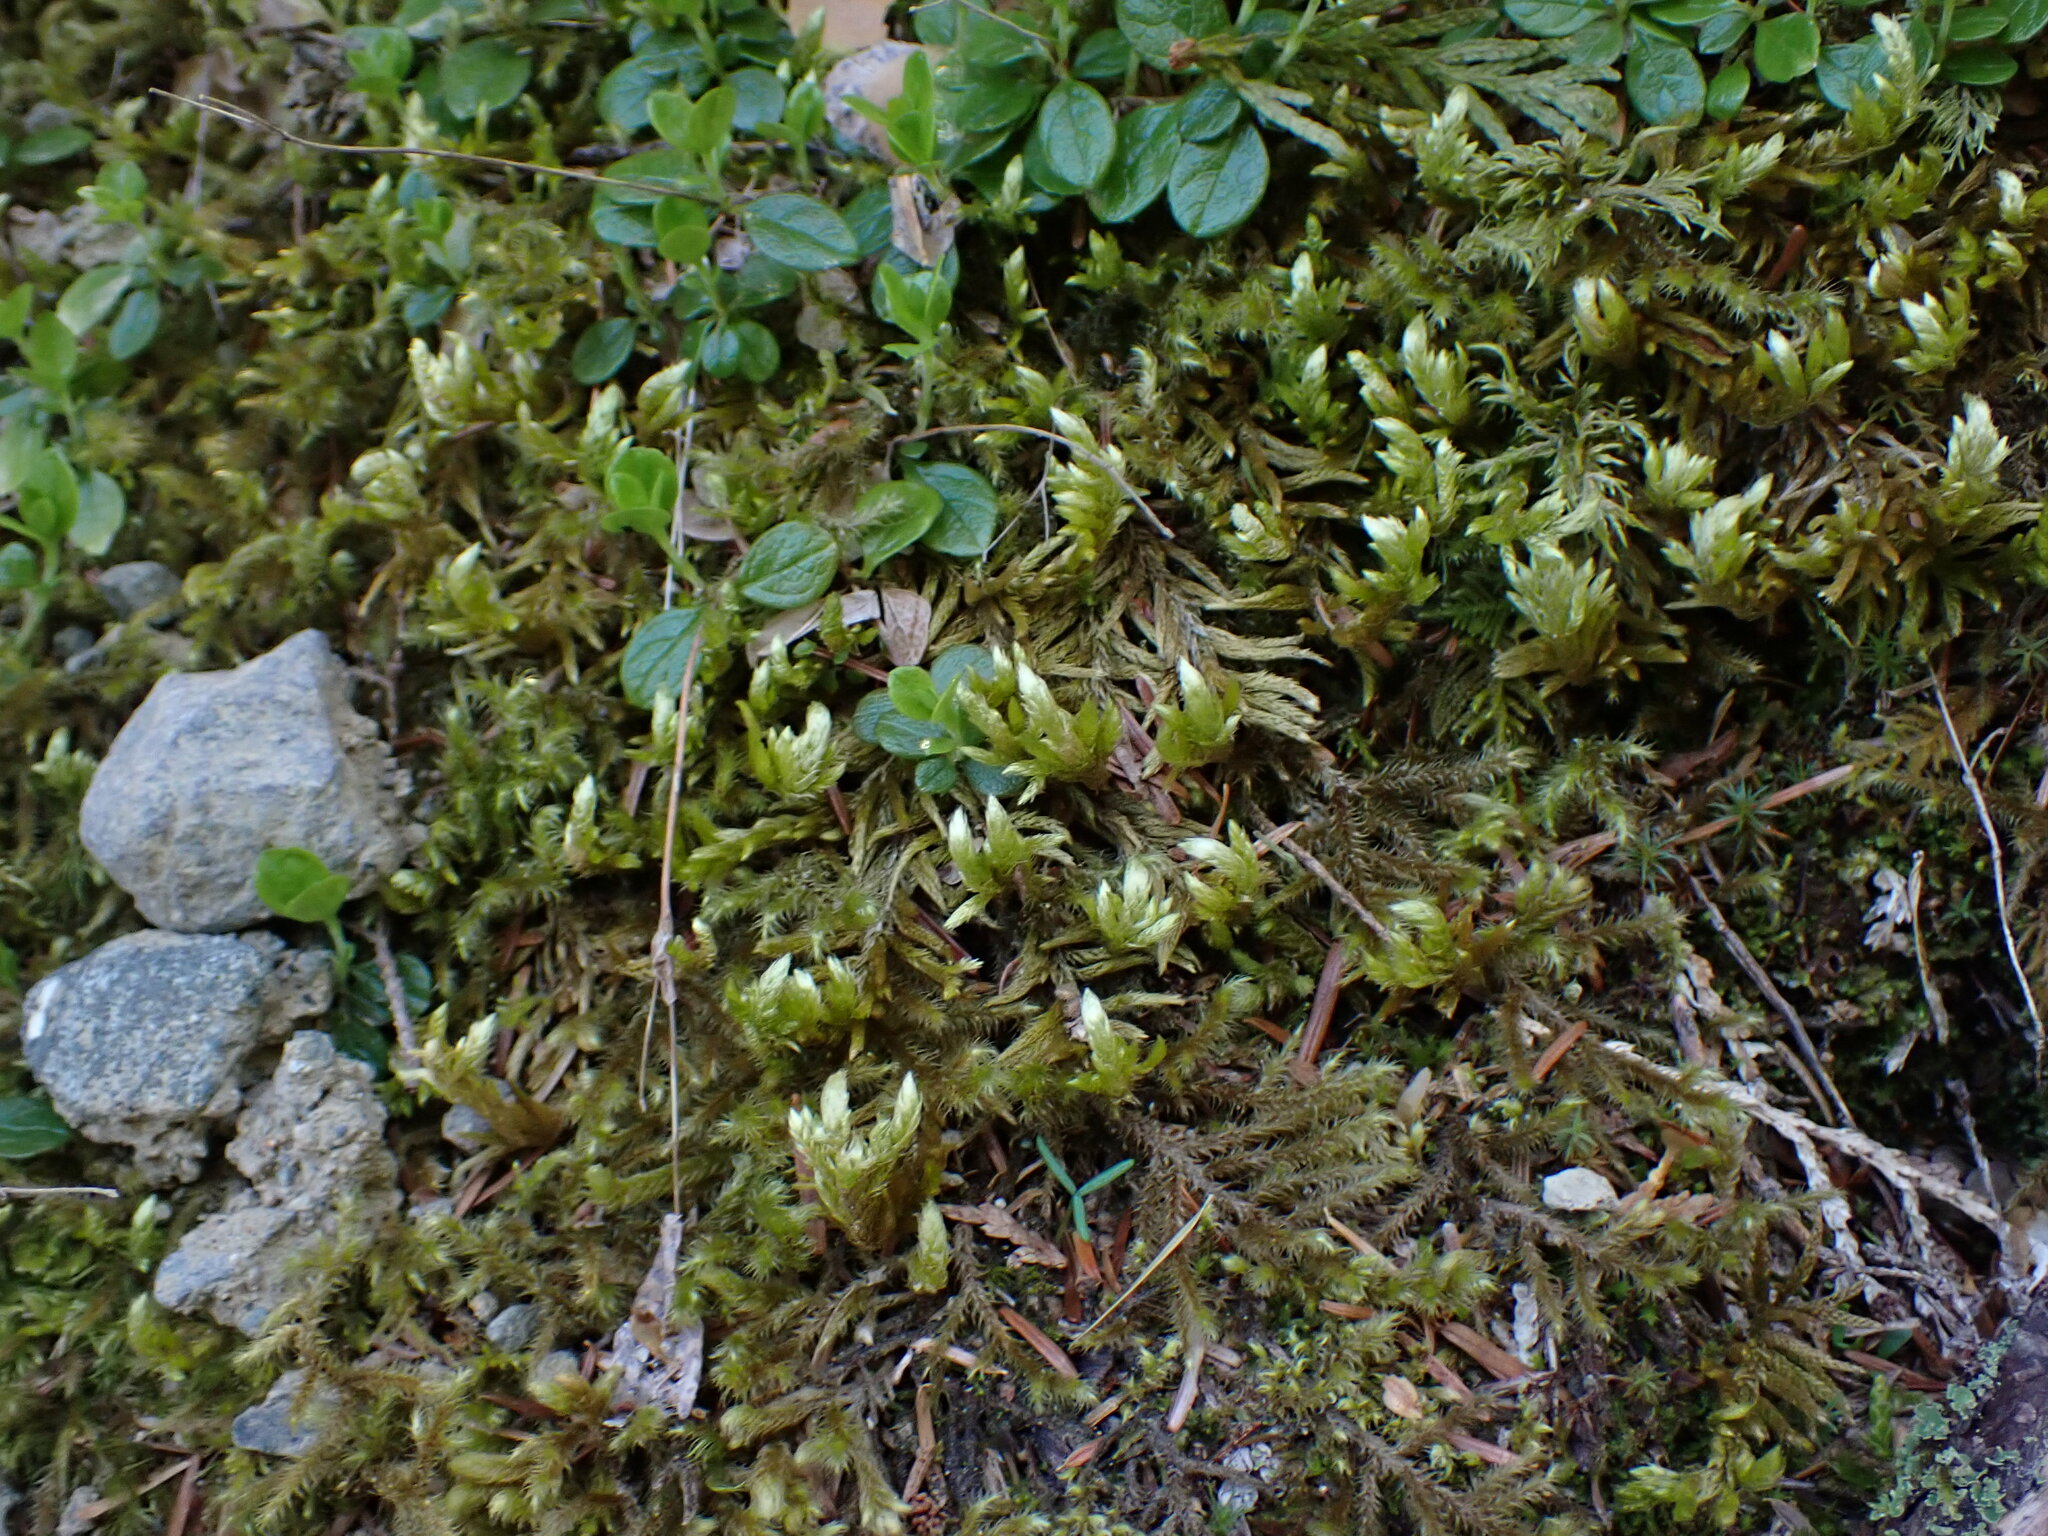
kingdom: Plantae
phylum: Bryophyta
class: Bryopsida
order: Hypnales
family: Brachytheciaceae
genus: Homalothecium
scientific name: Homalothecium megaptilum
